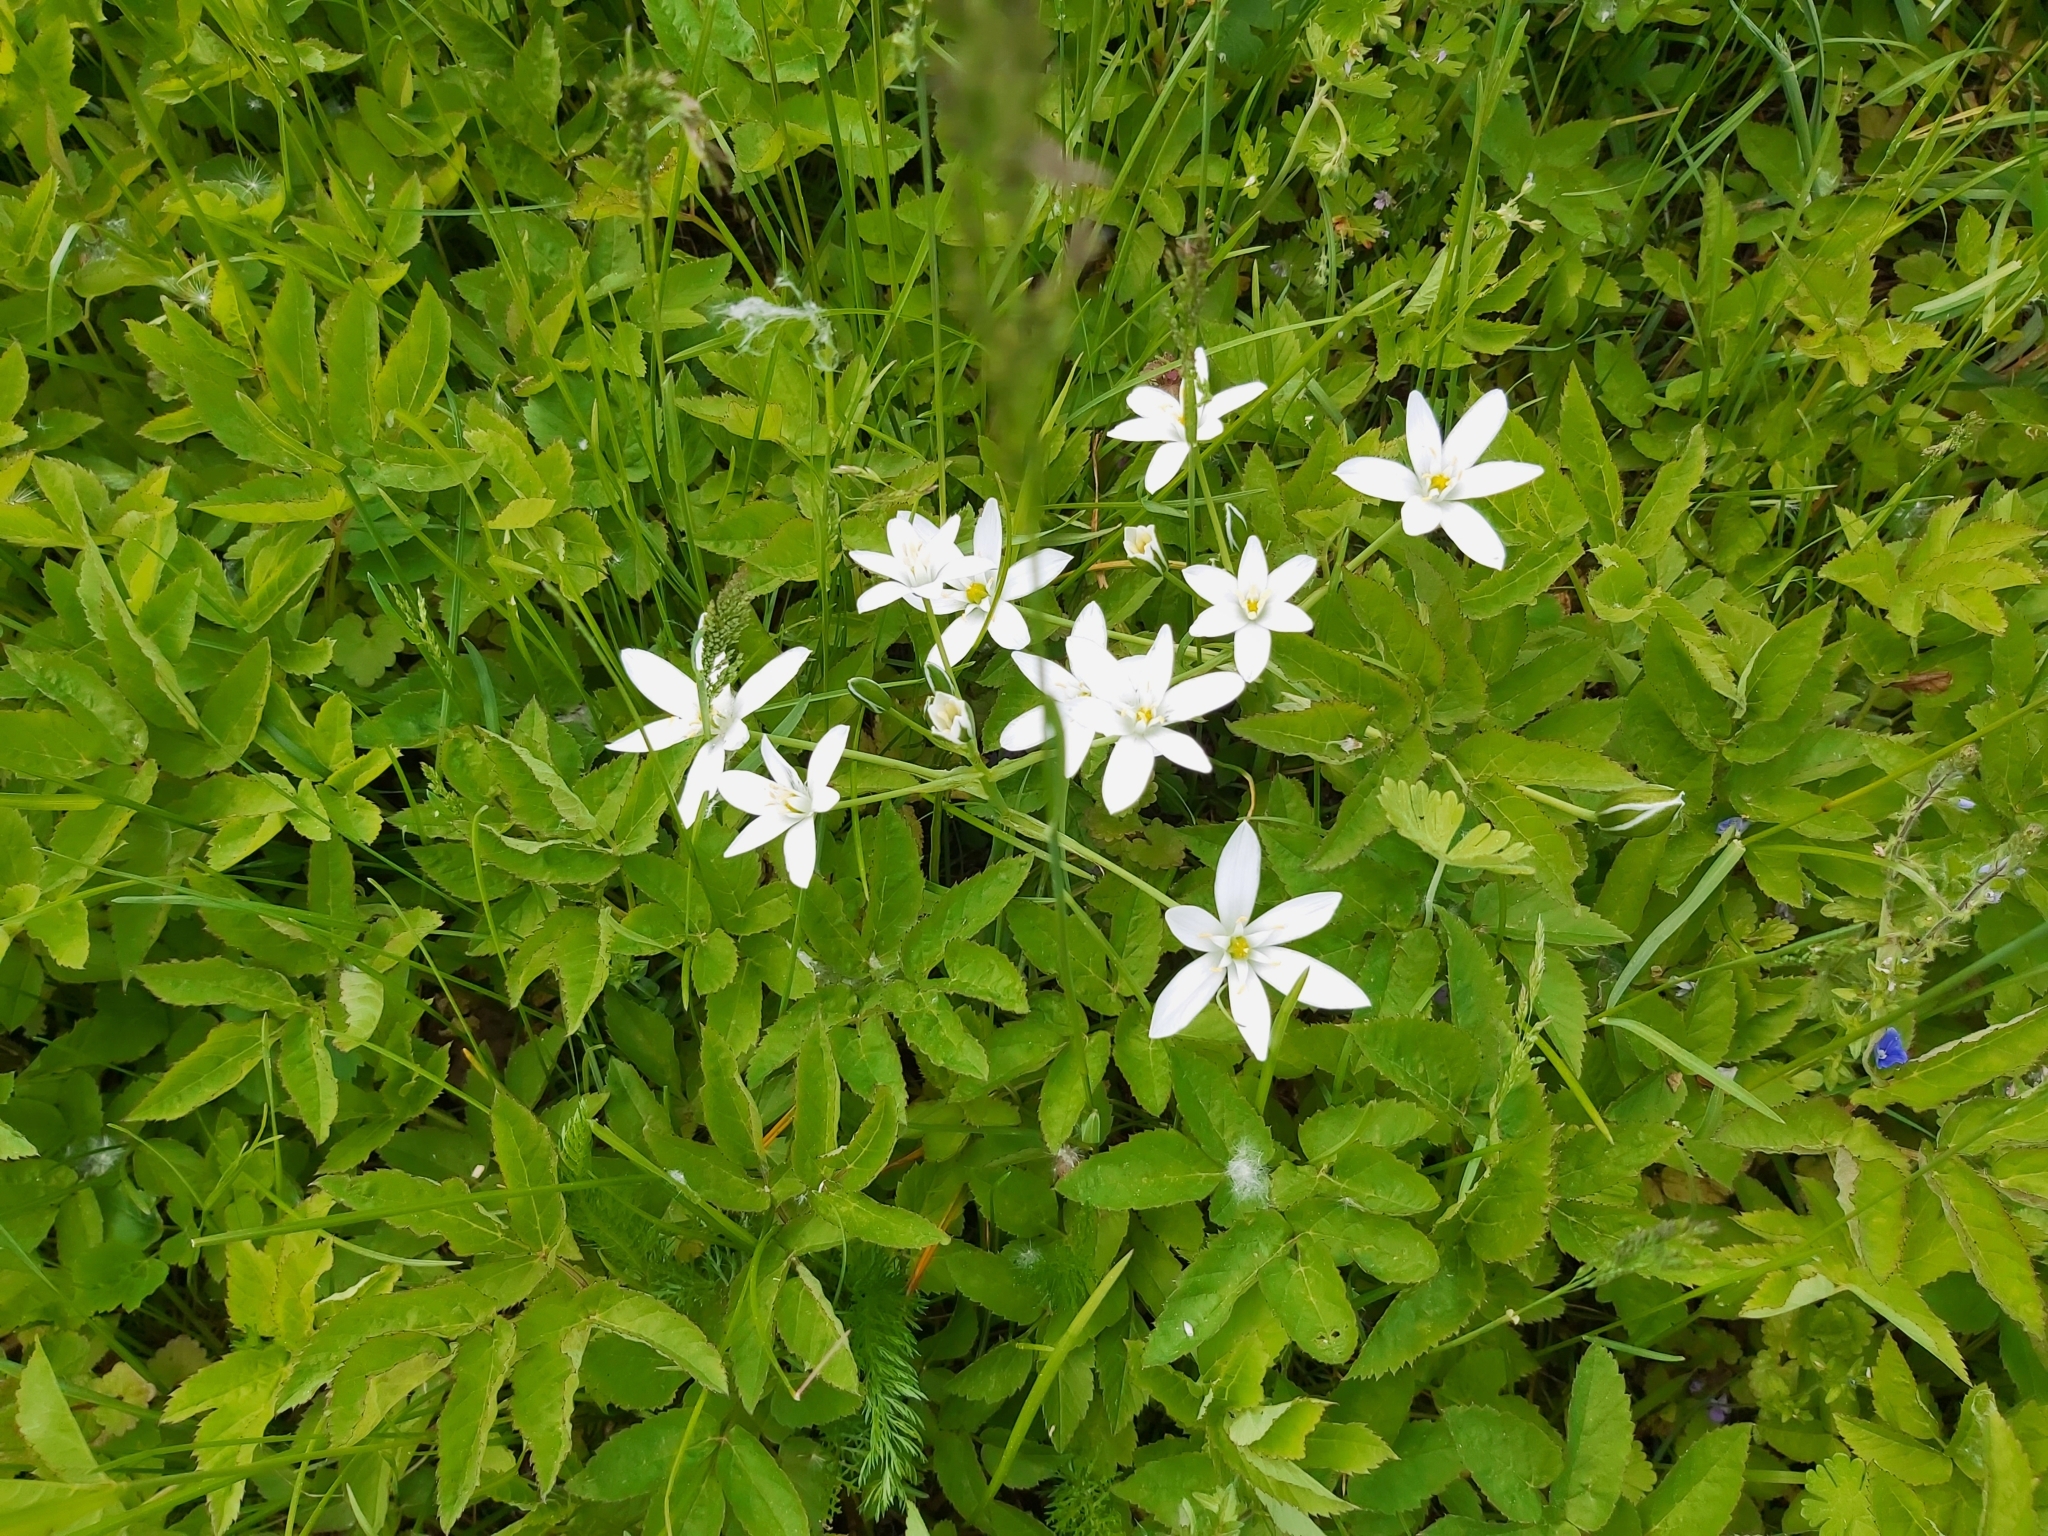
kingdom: Plantae
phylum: Tracheophyta
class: Liliopsida
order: Asparagales
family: Asparagaceae
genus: Ornithogalum
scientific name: Ornithogalum umbellatum
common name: Garden star-of-bethlehem
